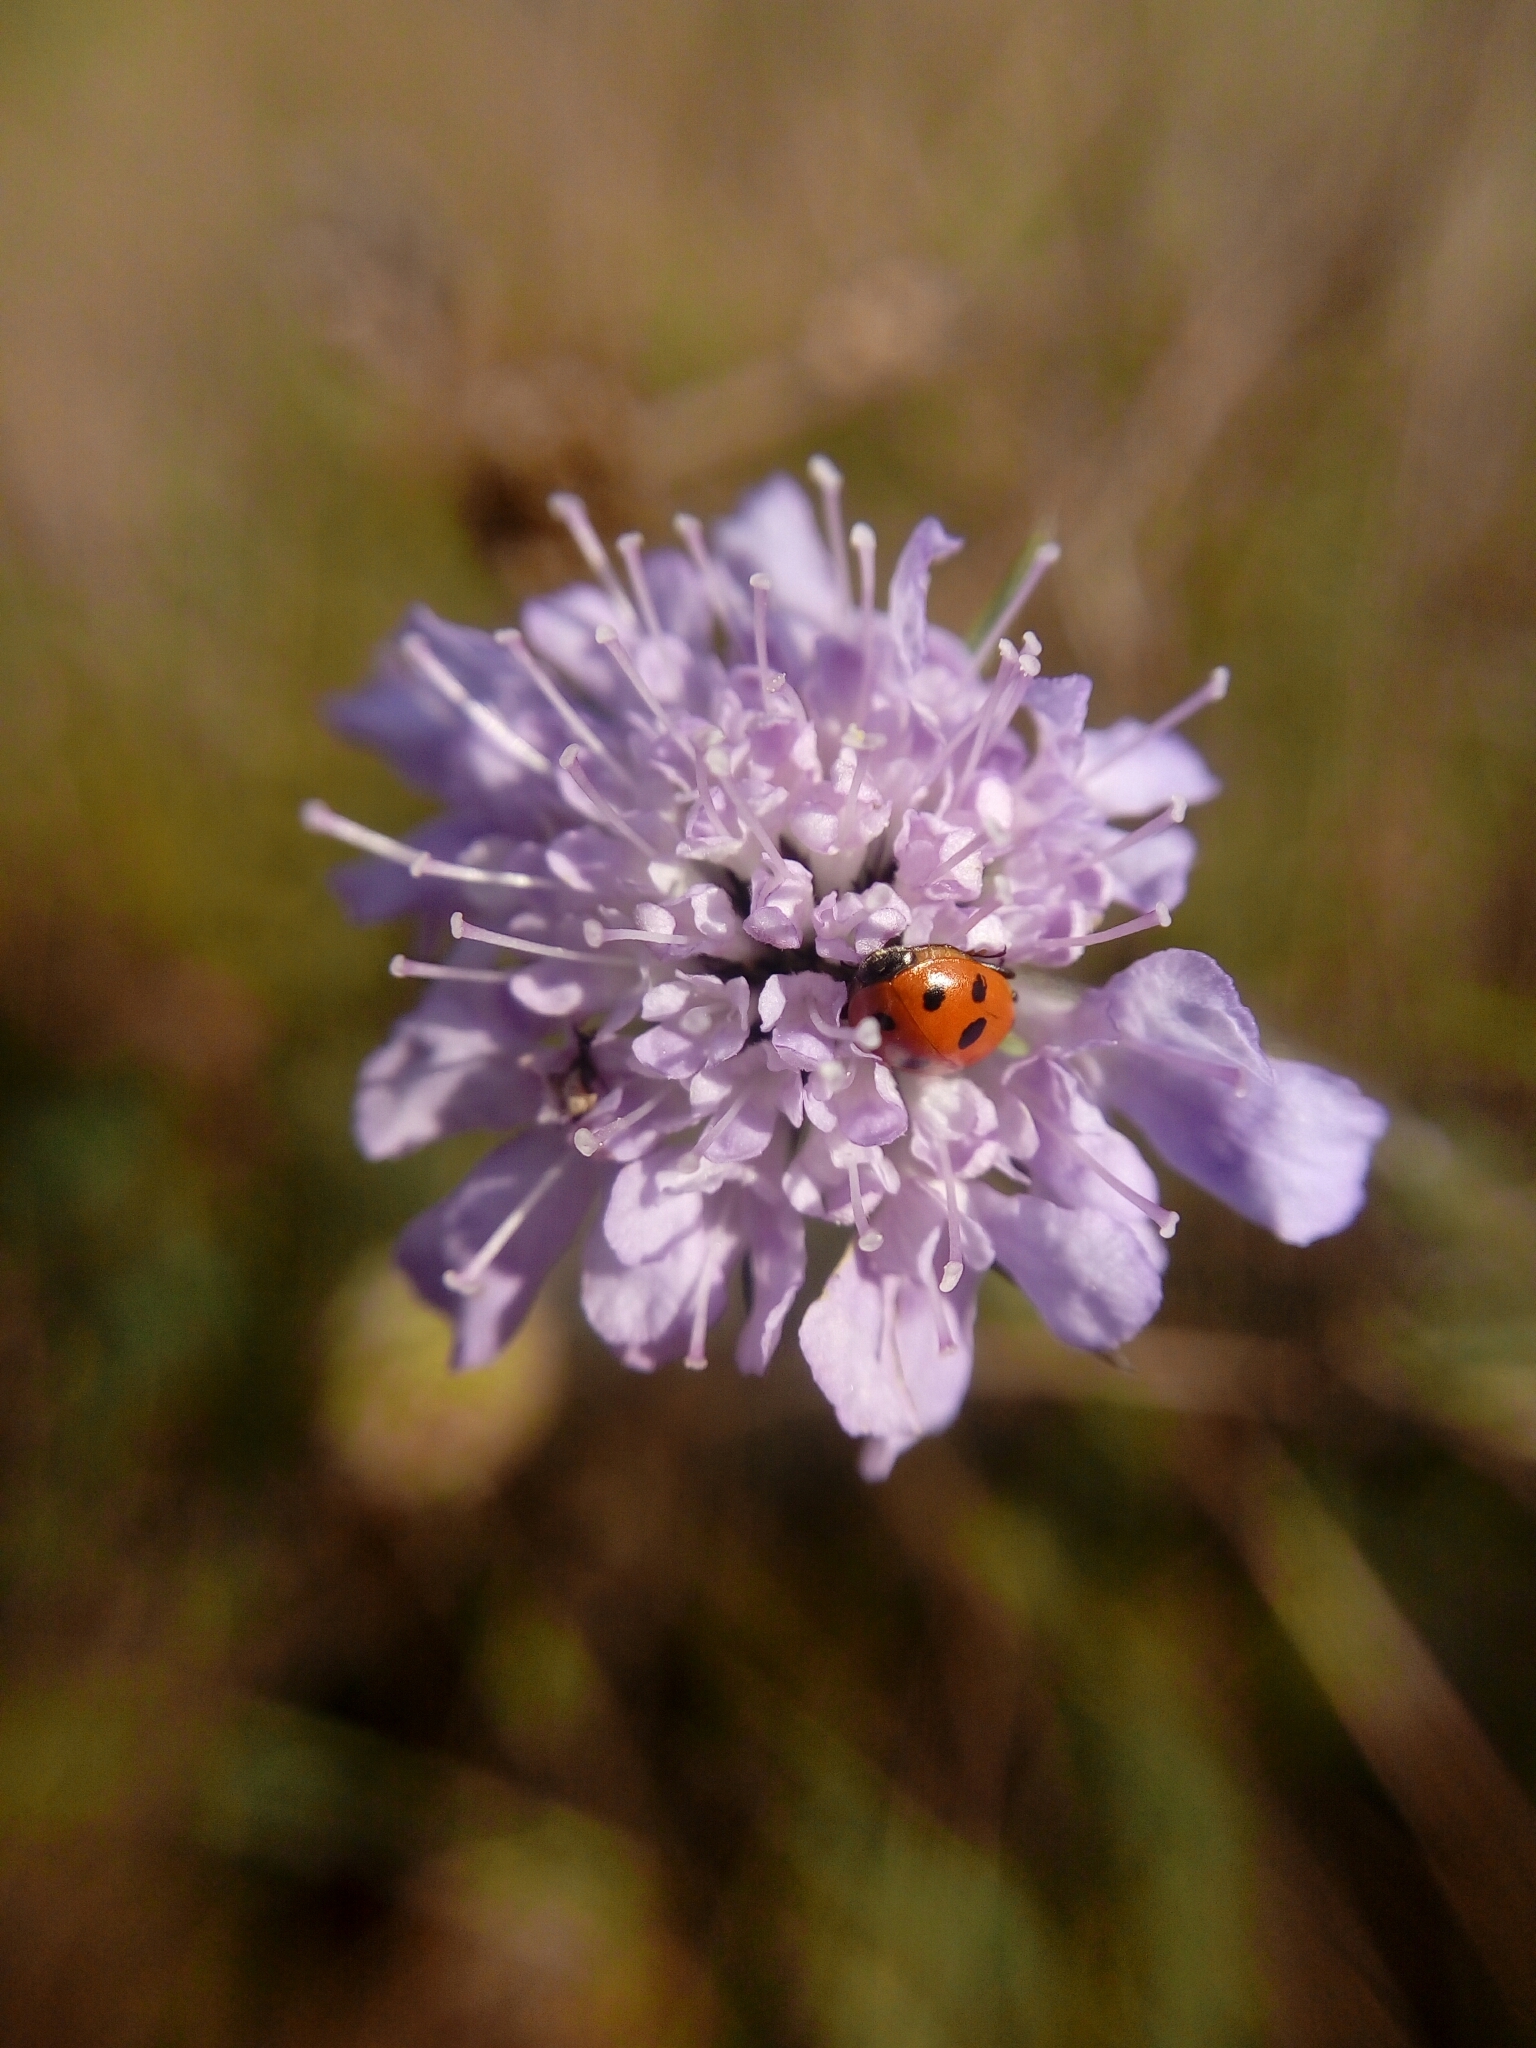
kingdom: Animalia
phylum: Arthropoda
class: Insecta
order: Coleoptera
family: Coccinellidae
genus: Hippodamia
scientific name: Hippodamia variegata
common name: Ladybird beetle
